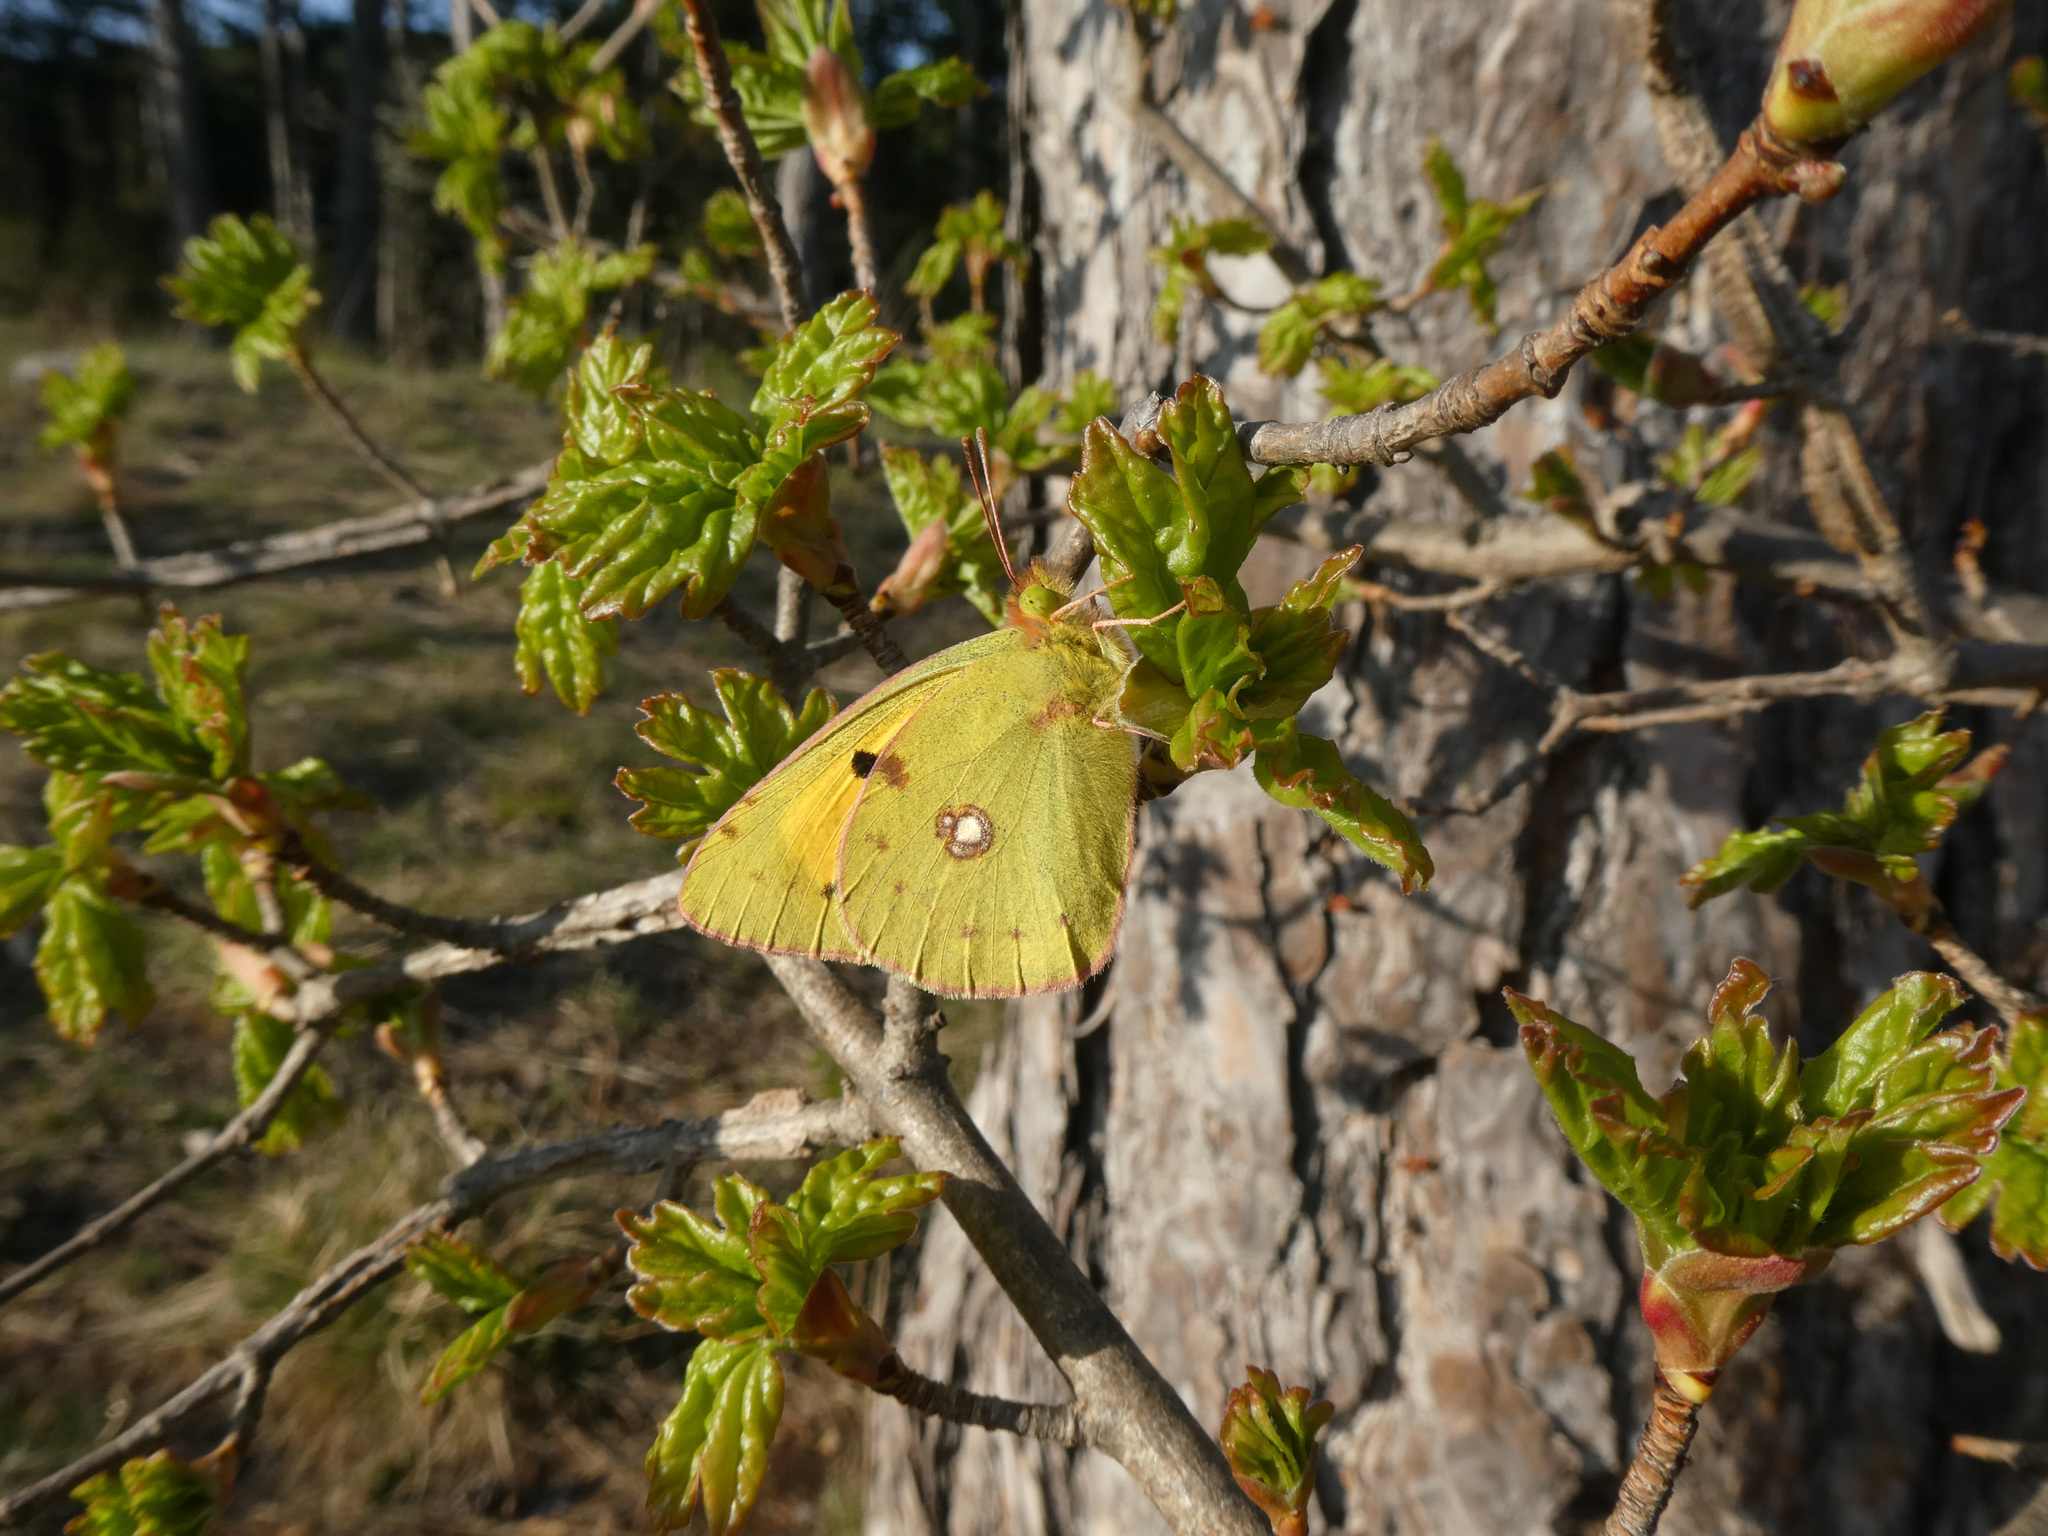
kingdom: Animalia
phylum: Arthropoda
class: Insecta
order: Lepidoptera
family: Pieridae
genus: Colias
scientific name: Colias croceus
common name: Clouded yellow
